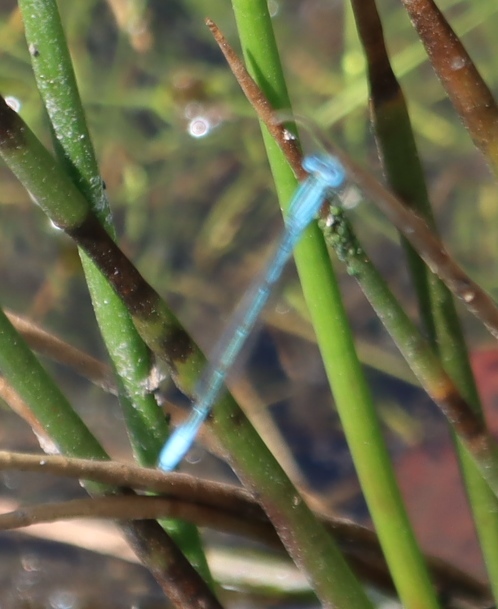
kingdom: Animalia
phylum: Arthropoda
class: Insecta
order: Odonata
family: Coenagrionidae
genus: Africallagma
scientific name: Africallagma glaucum
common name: Swamp bluet
